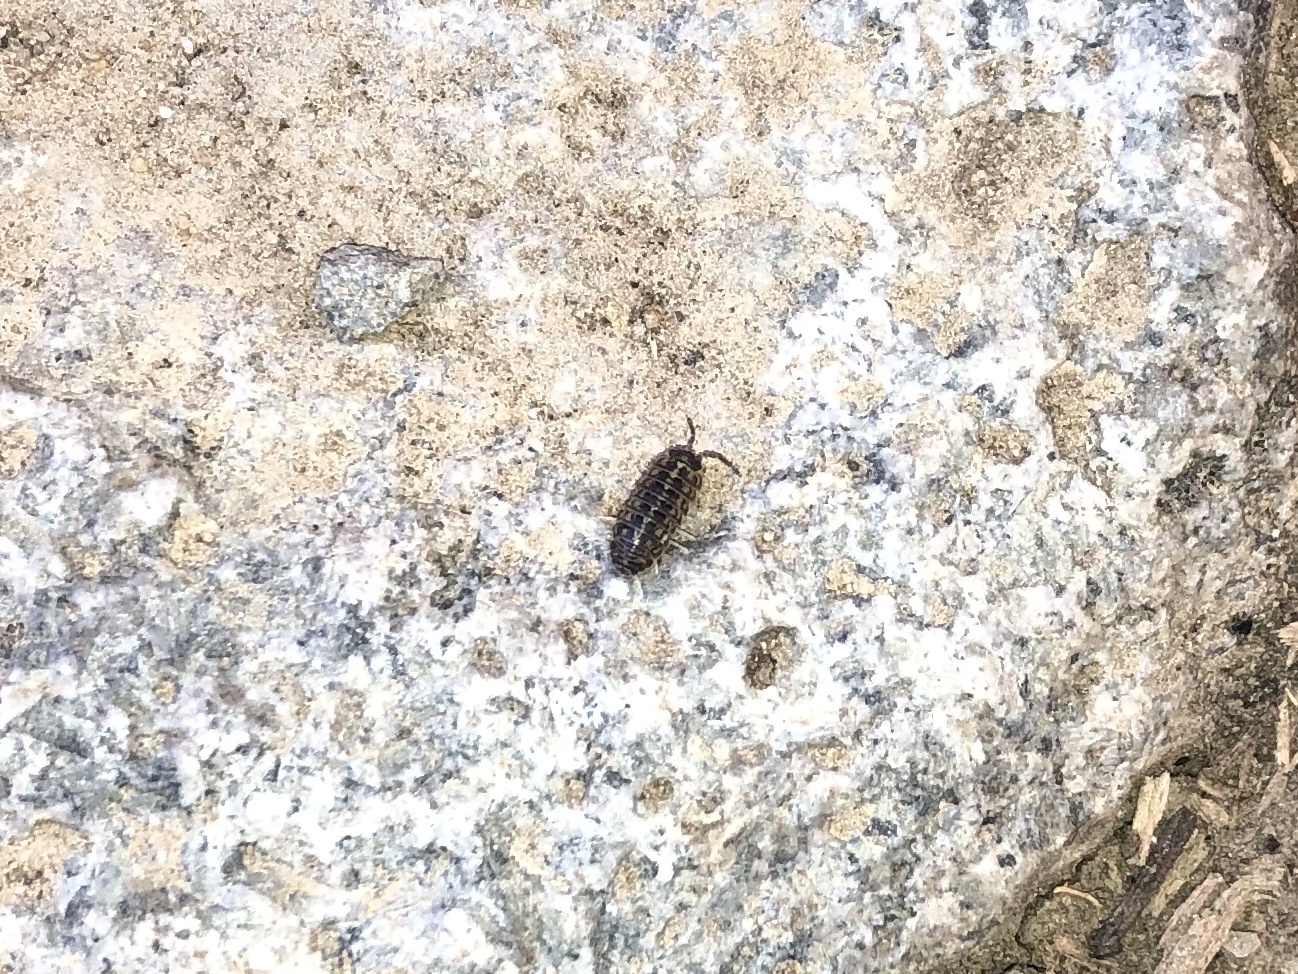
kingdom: Animalia
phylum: Arthropoda
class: Malacostraca
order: Isopoda
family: Armadillidiidae
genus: Armadillidium
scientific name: Armadillidium versicolor
